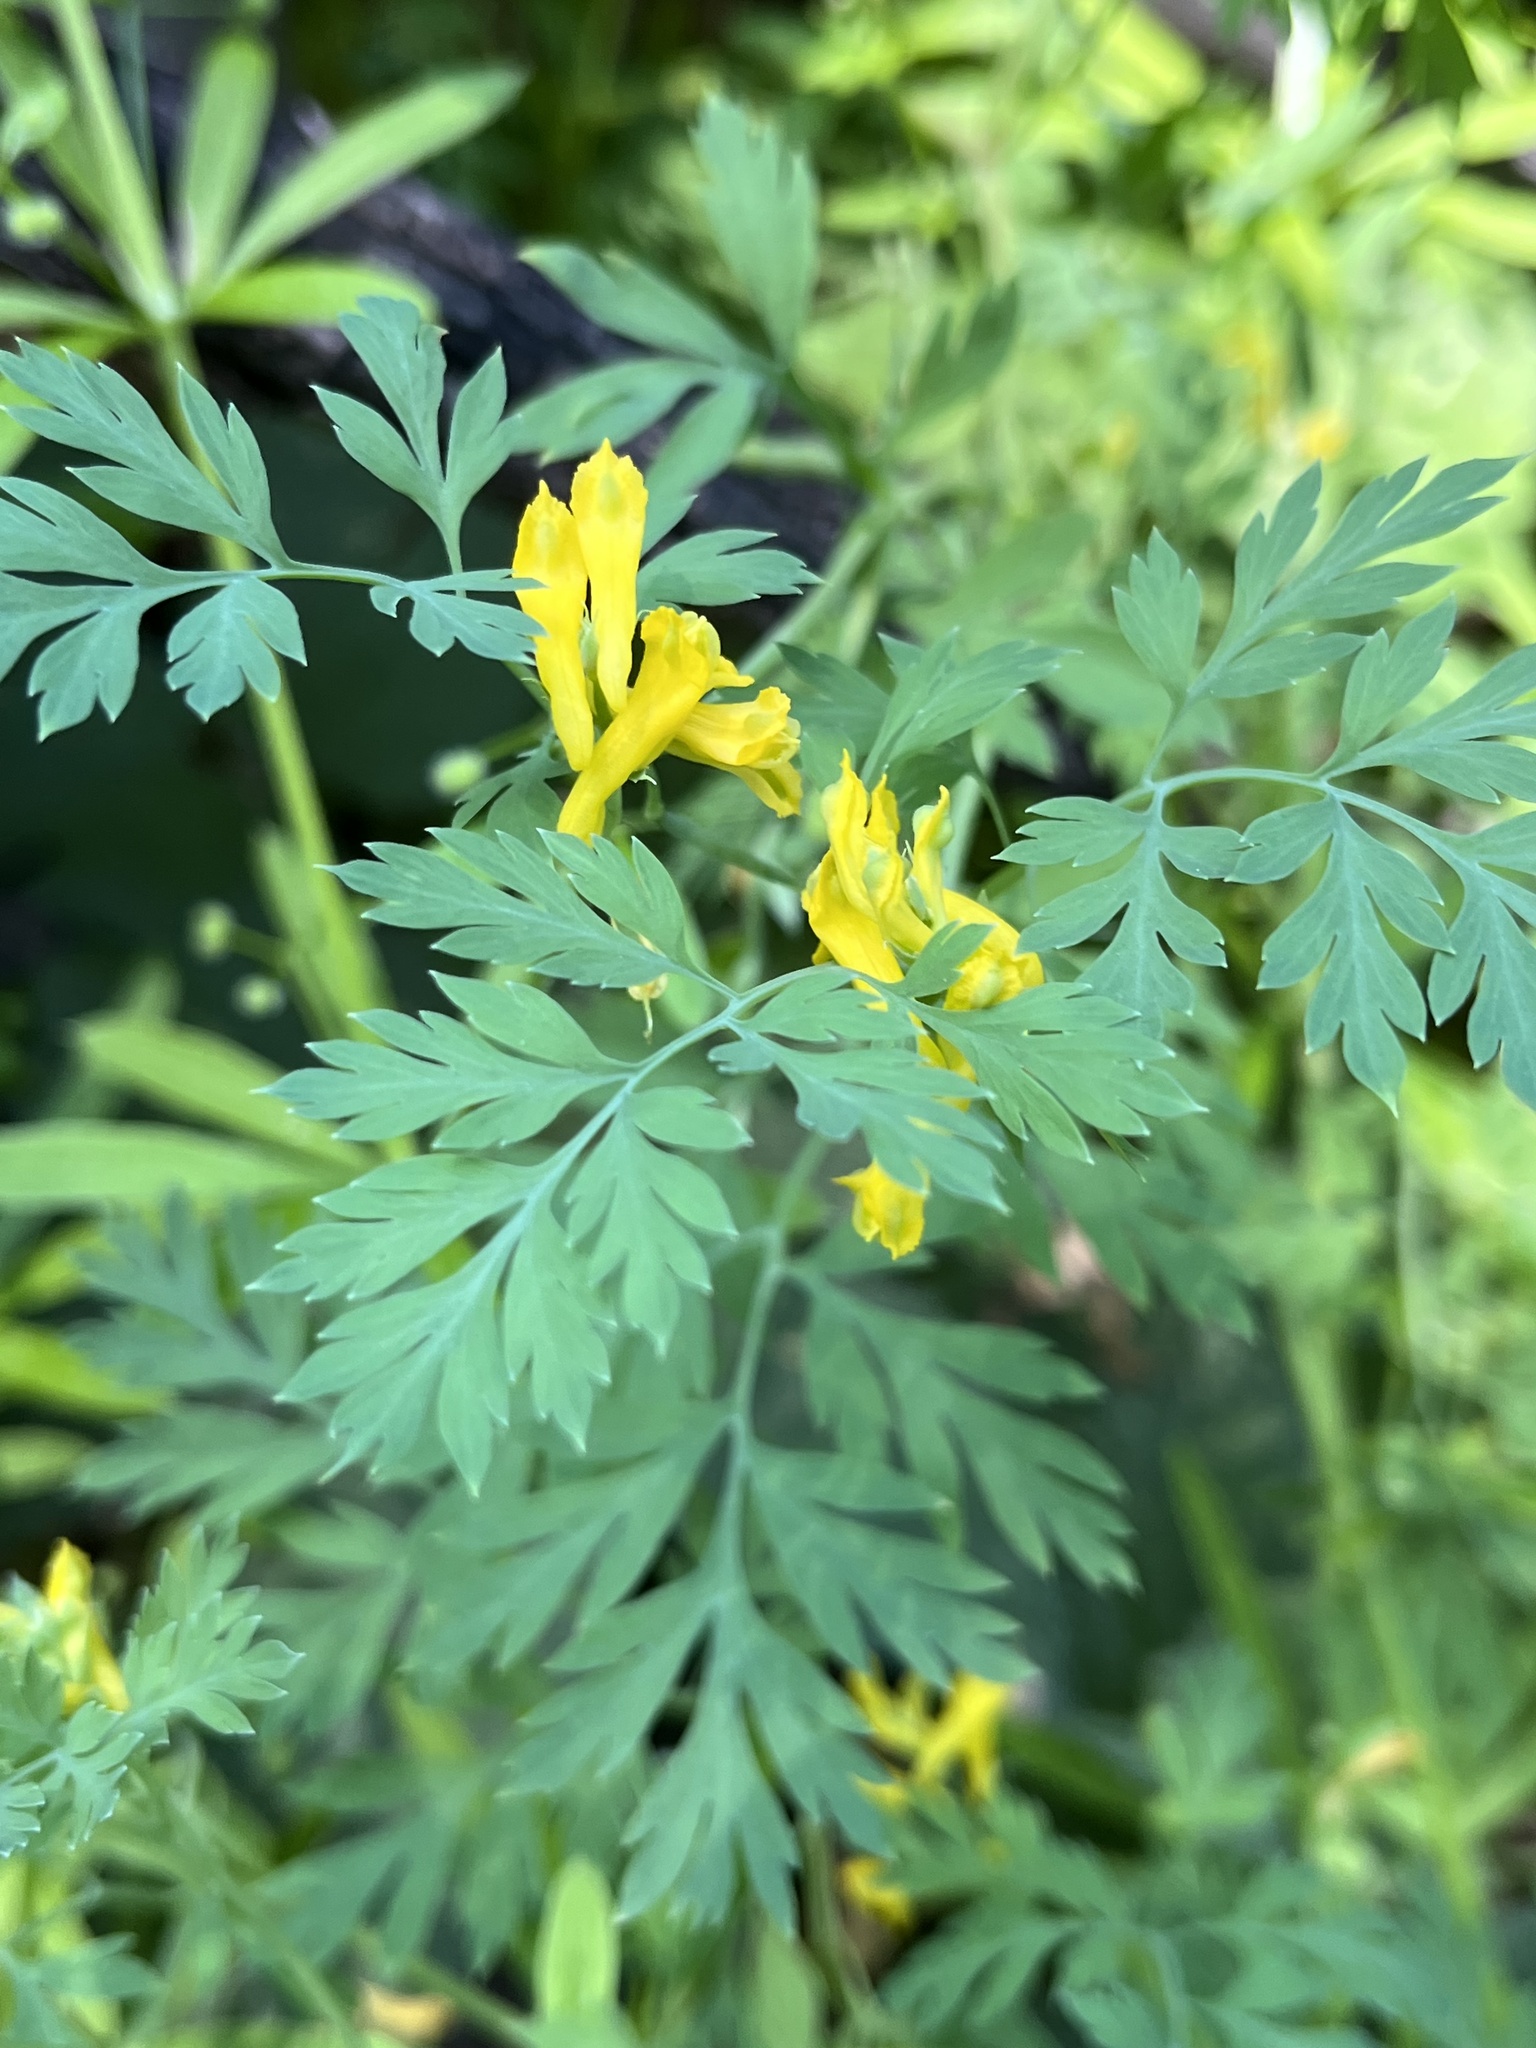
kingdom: Plantae
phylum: Tracheophyta
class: Magnoliopsida
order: Ranunculales
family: Papaveraceae
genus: Corydalis
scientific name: Corydalis aurea
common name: Golden corydalis
